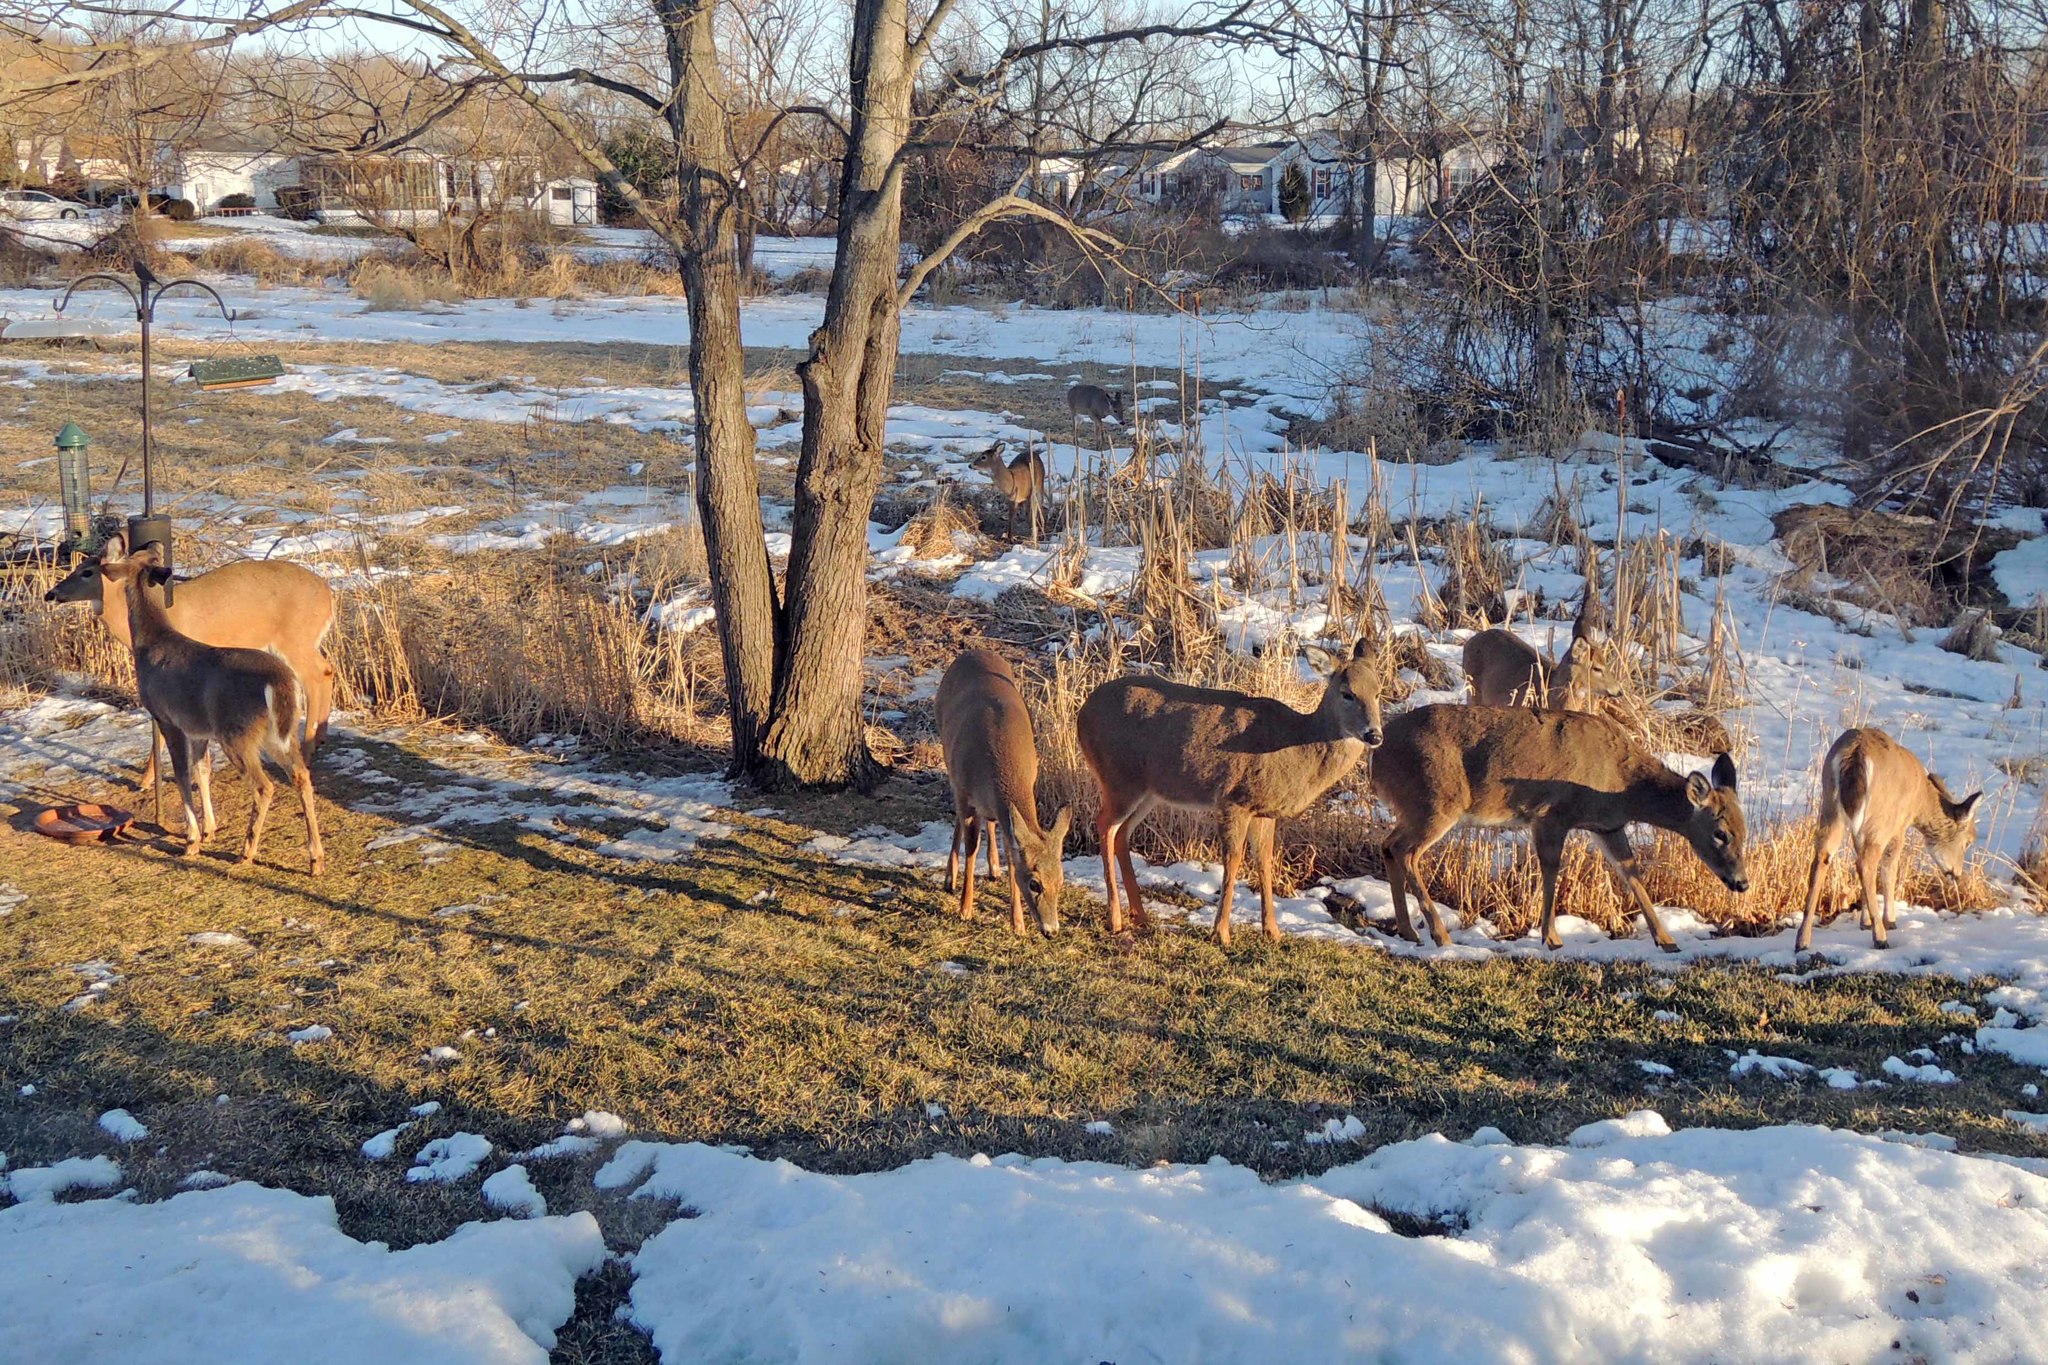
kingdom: Animalia
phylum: Chordata
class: Mammalia
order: Artiodactyla
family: Cervidae
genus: Odocoileus
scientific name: Odocoileus virginianus
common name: White-tailed deer
